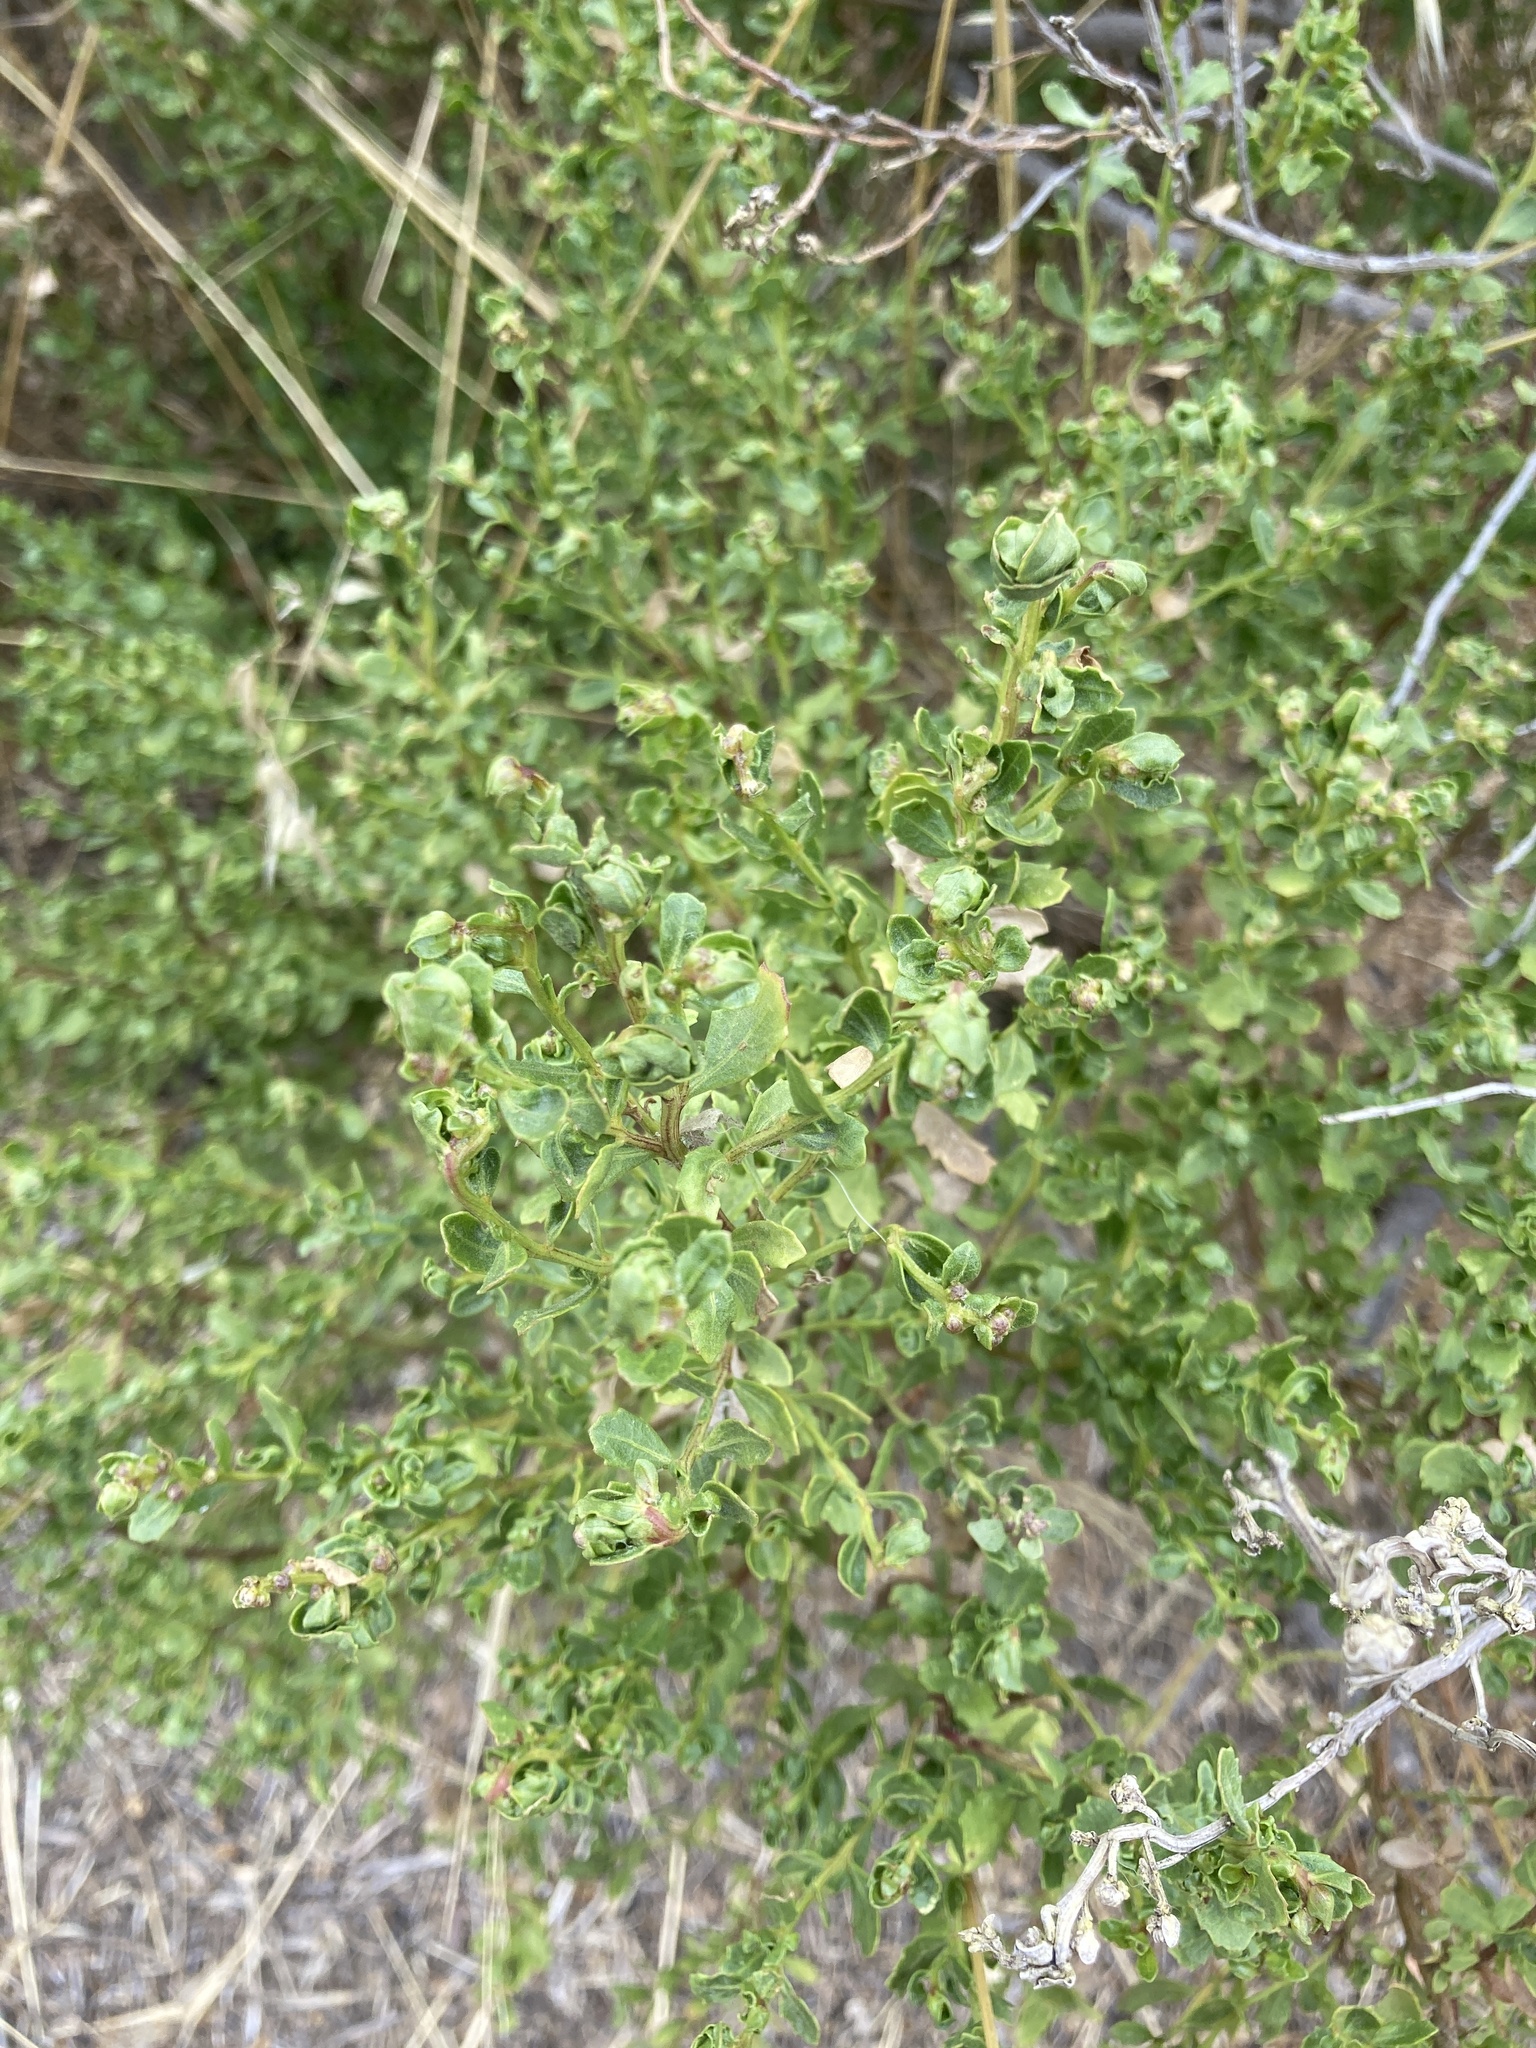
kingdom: Plantae
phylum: Tracheophyta
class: Magnoliopsida
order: Asterales
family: Asteraceae
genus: Baccharis
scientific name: Baccharis pilularis
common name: Coyotebrush
